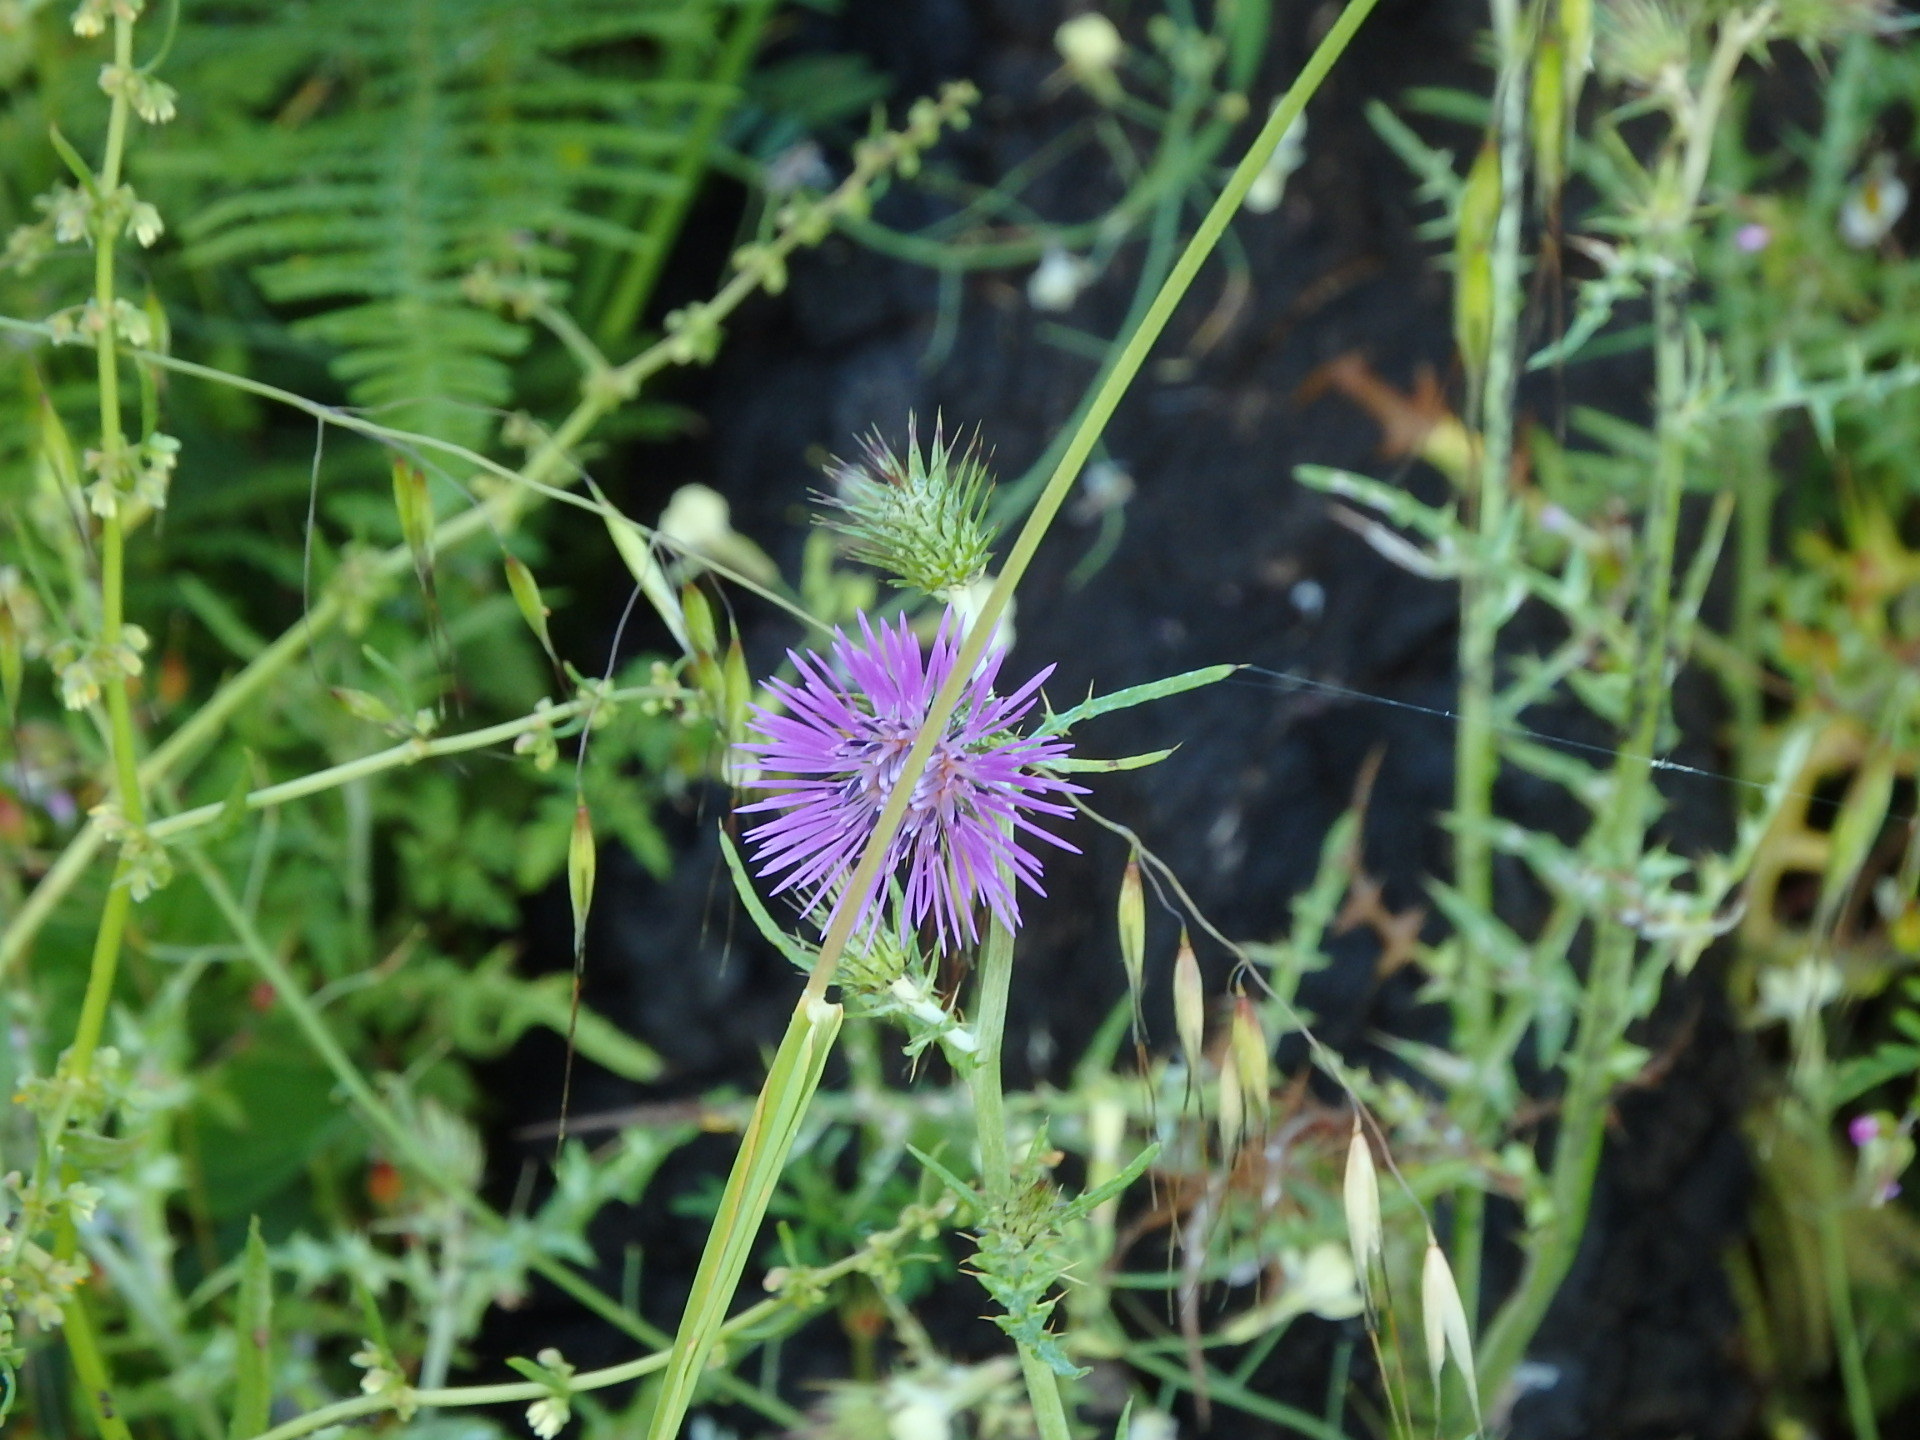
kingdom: Plantae
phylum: Tracheophyta
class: Magnoliopsida
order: Asterales
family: Asteraceae
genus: Galactites
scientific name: Galactites tomentosa
